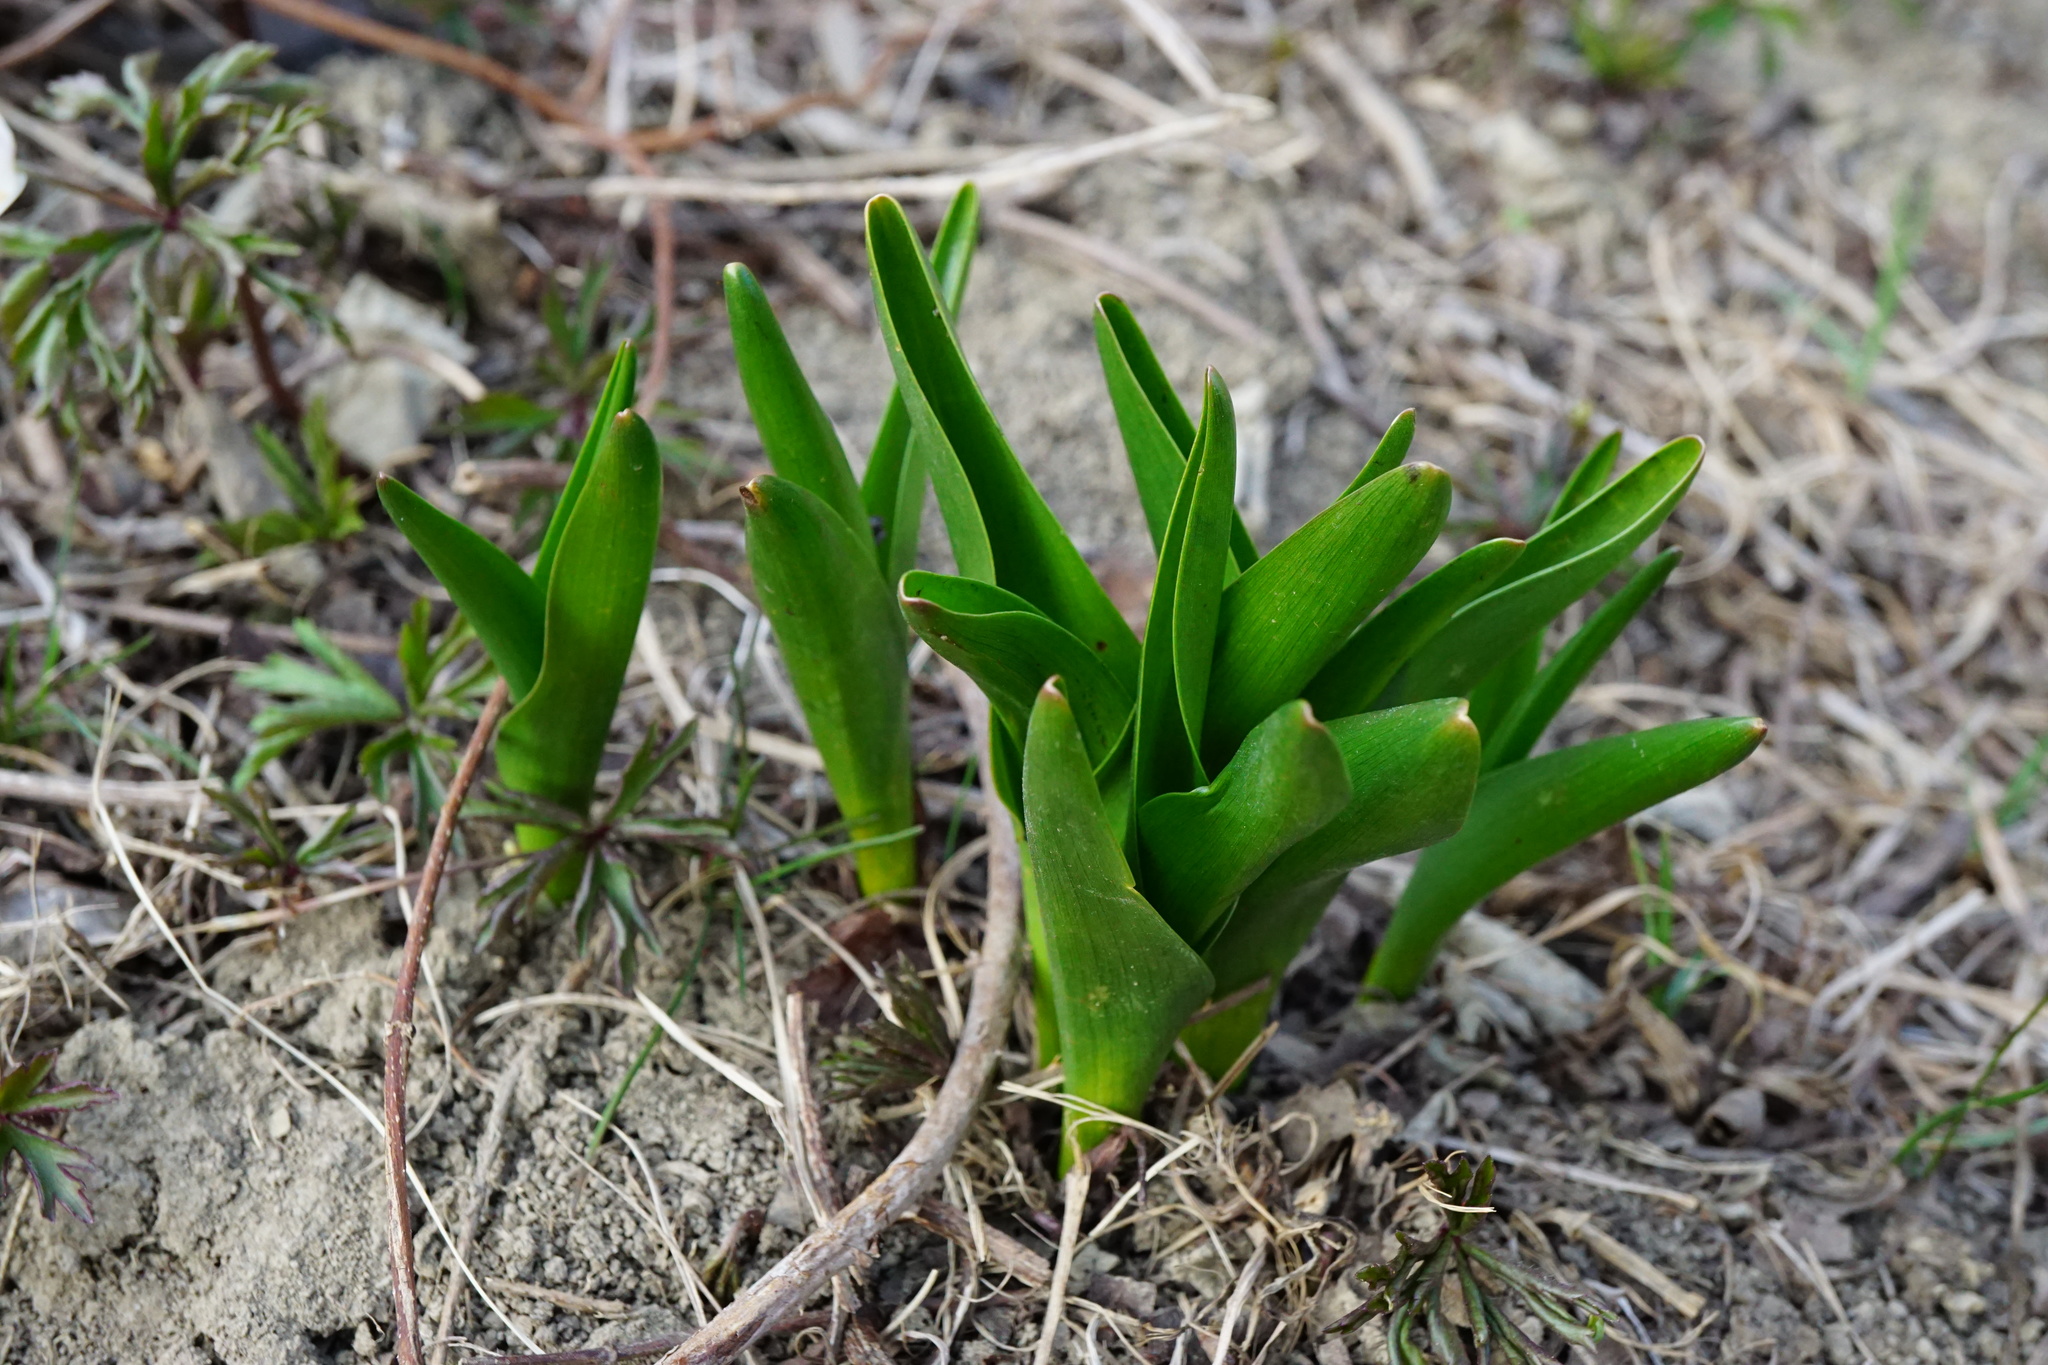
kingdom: Plantae
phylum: Tracheophyta
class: Liliopsida
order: Liliales
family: Colchicaceae
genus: Colchicum
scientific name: Colchicum autumnale
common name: Autumn crocus
